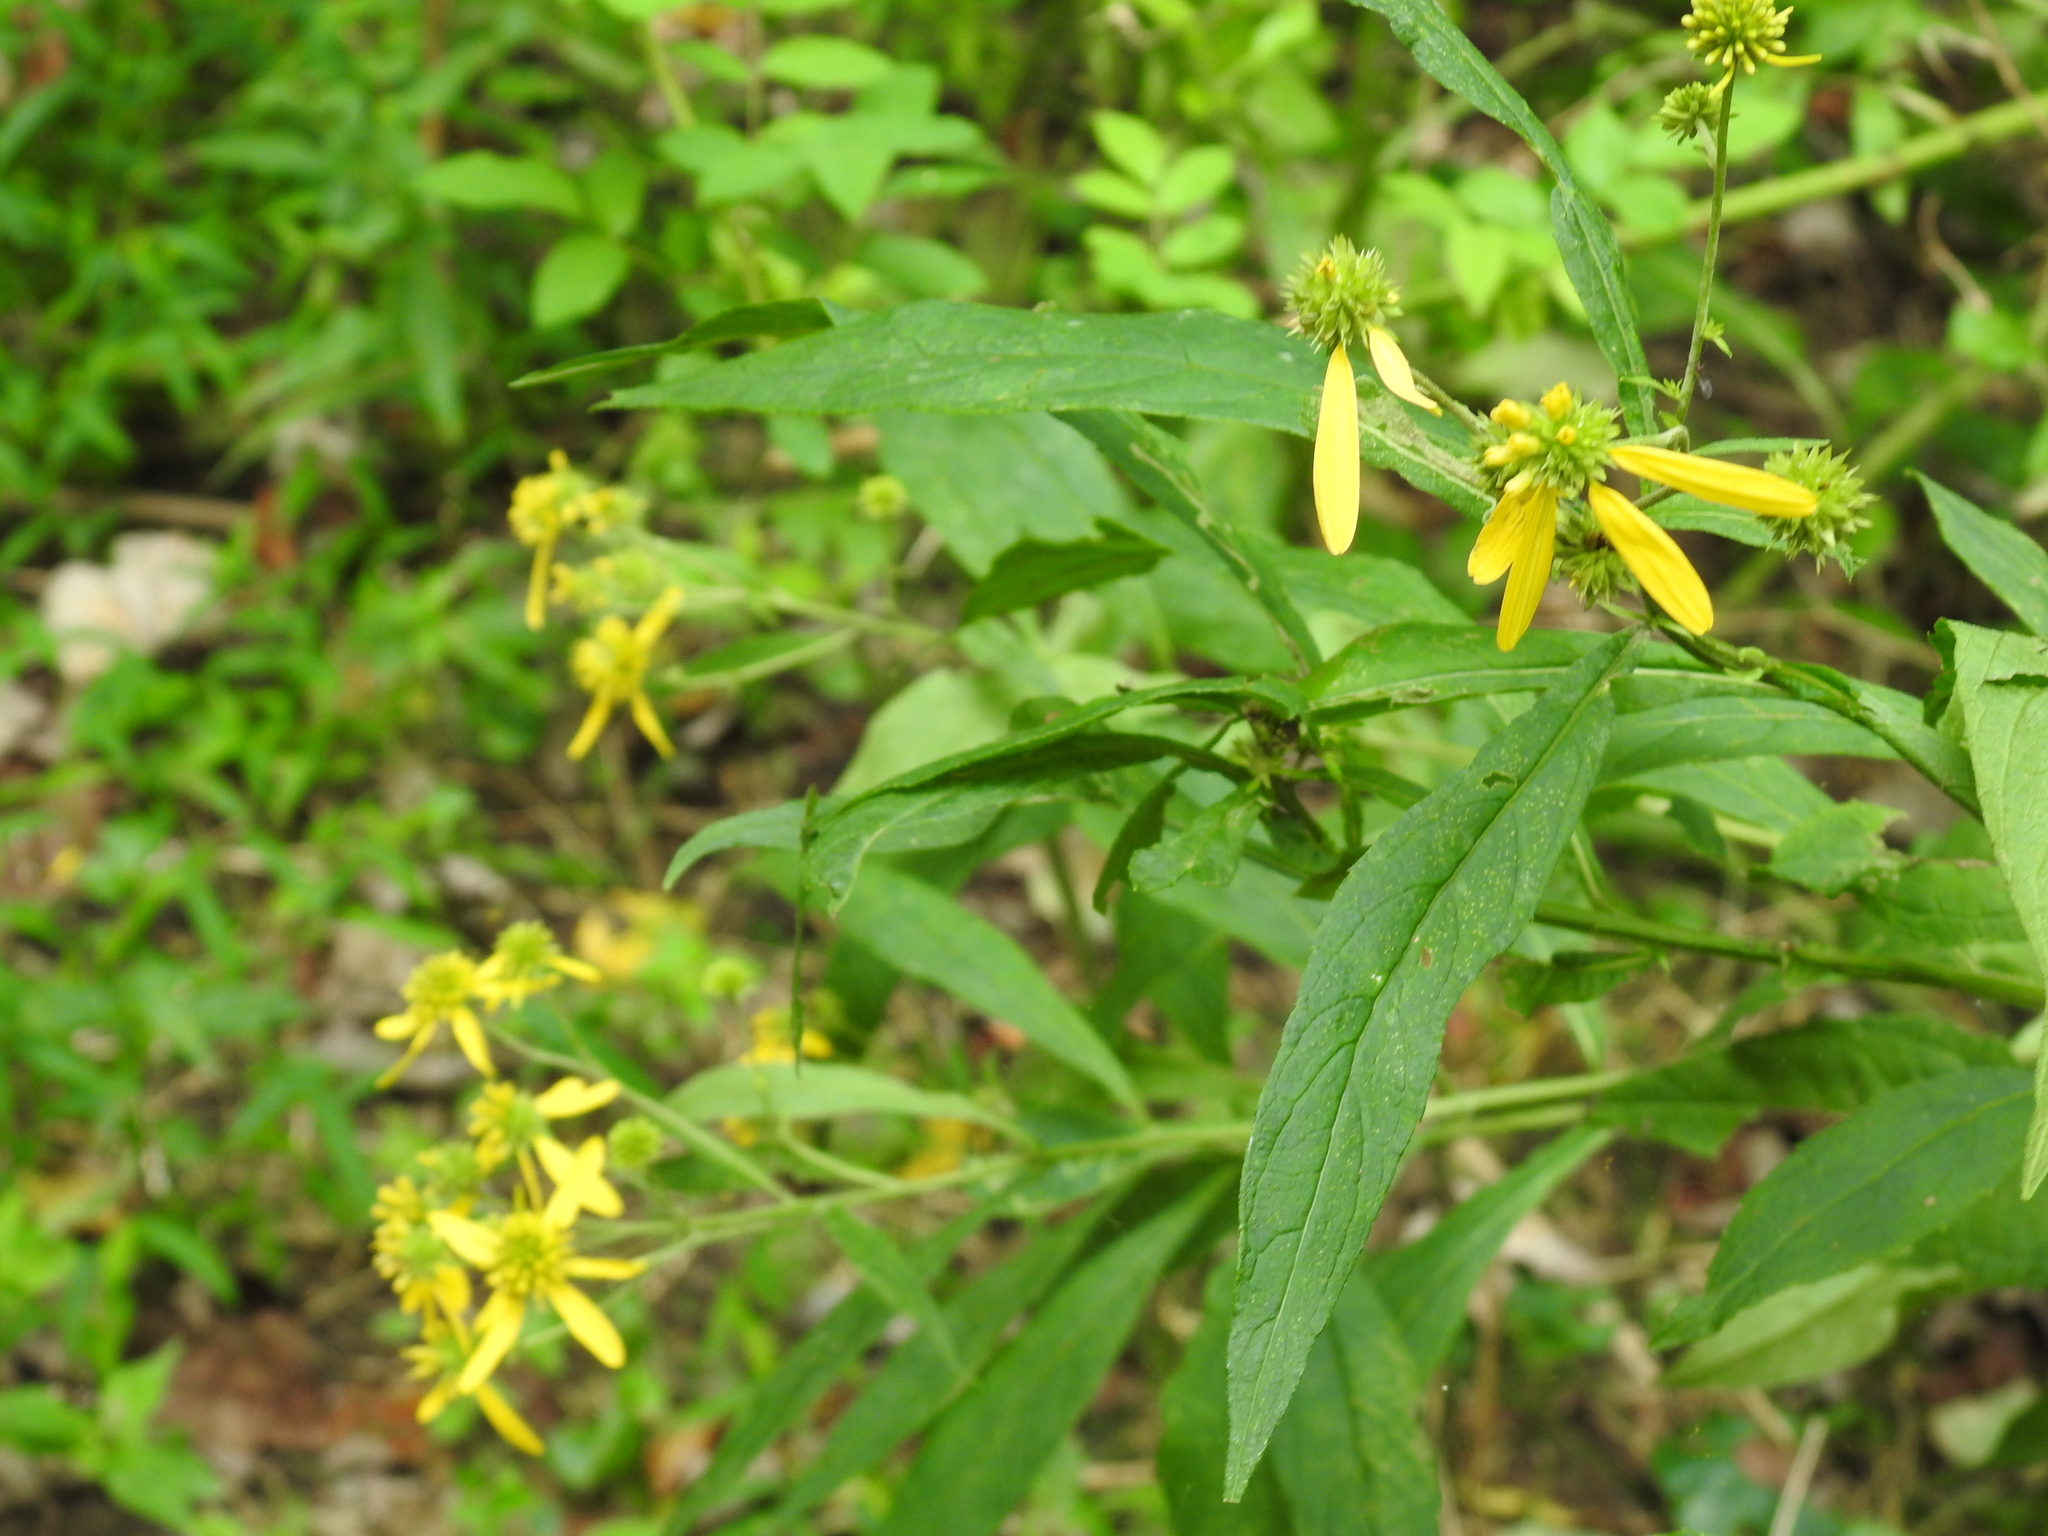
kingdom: Plantae
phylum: Tracheophyta
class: Magnoliopsida
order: Asterales
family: Asteraceae
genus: Verbesina
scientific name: Verbesina alternifolia
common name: Wingstem
